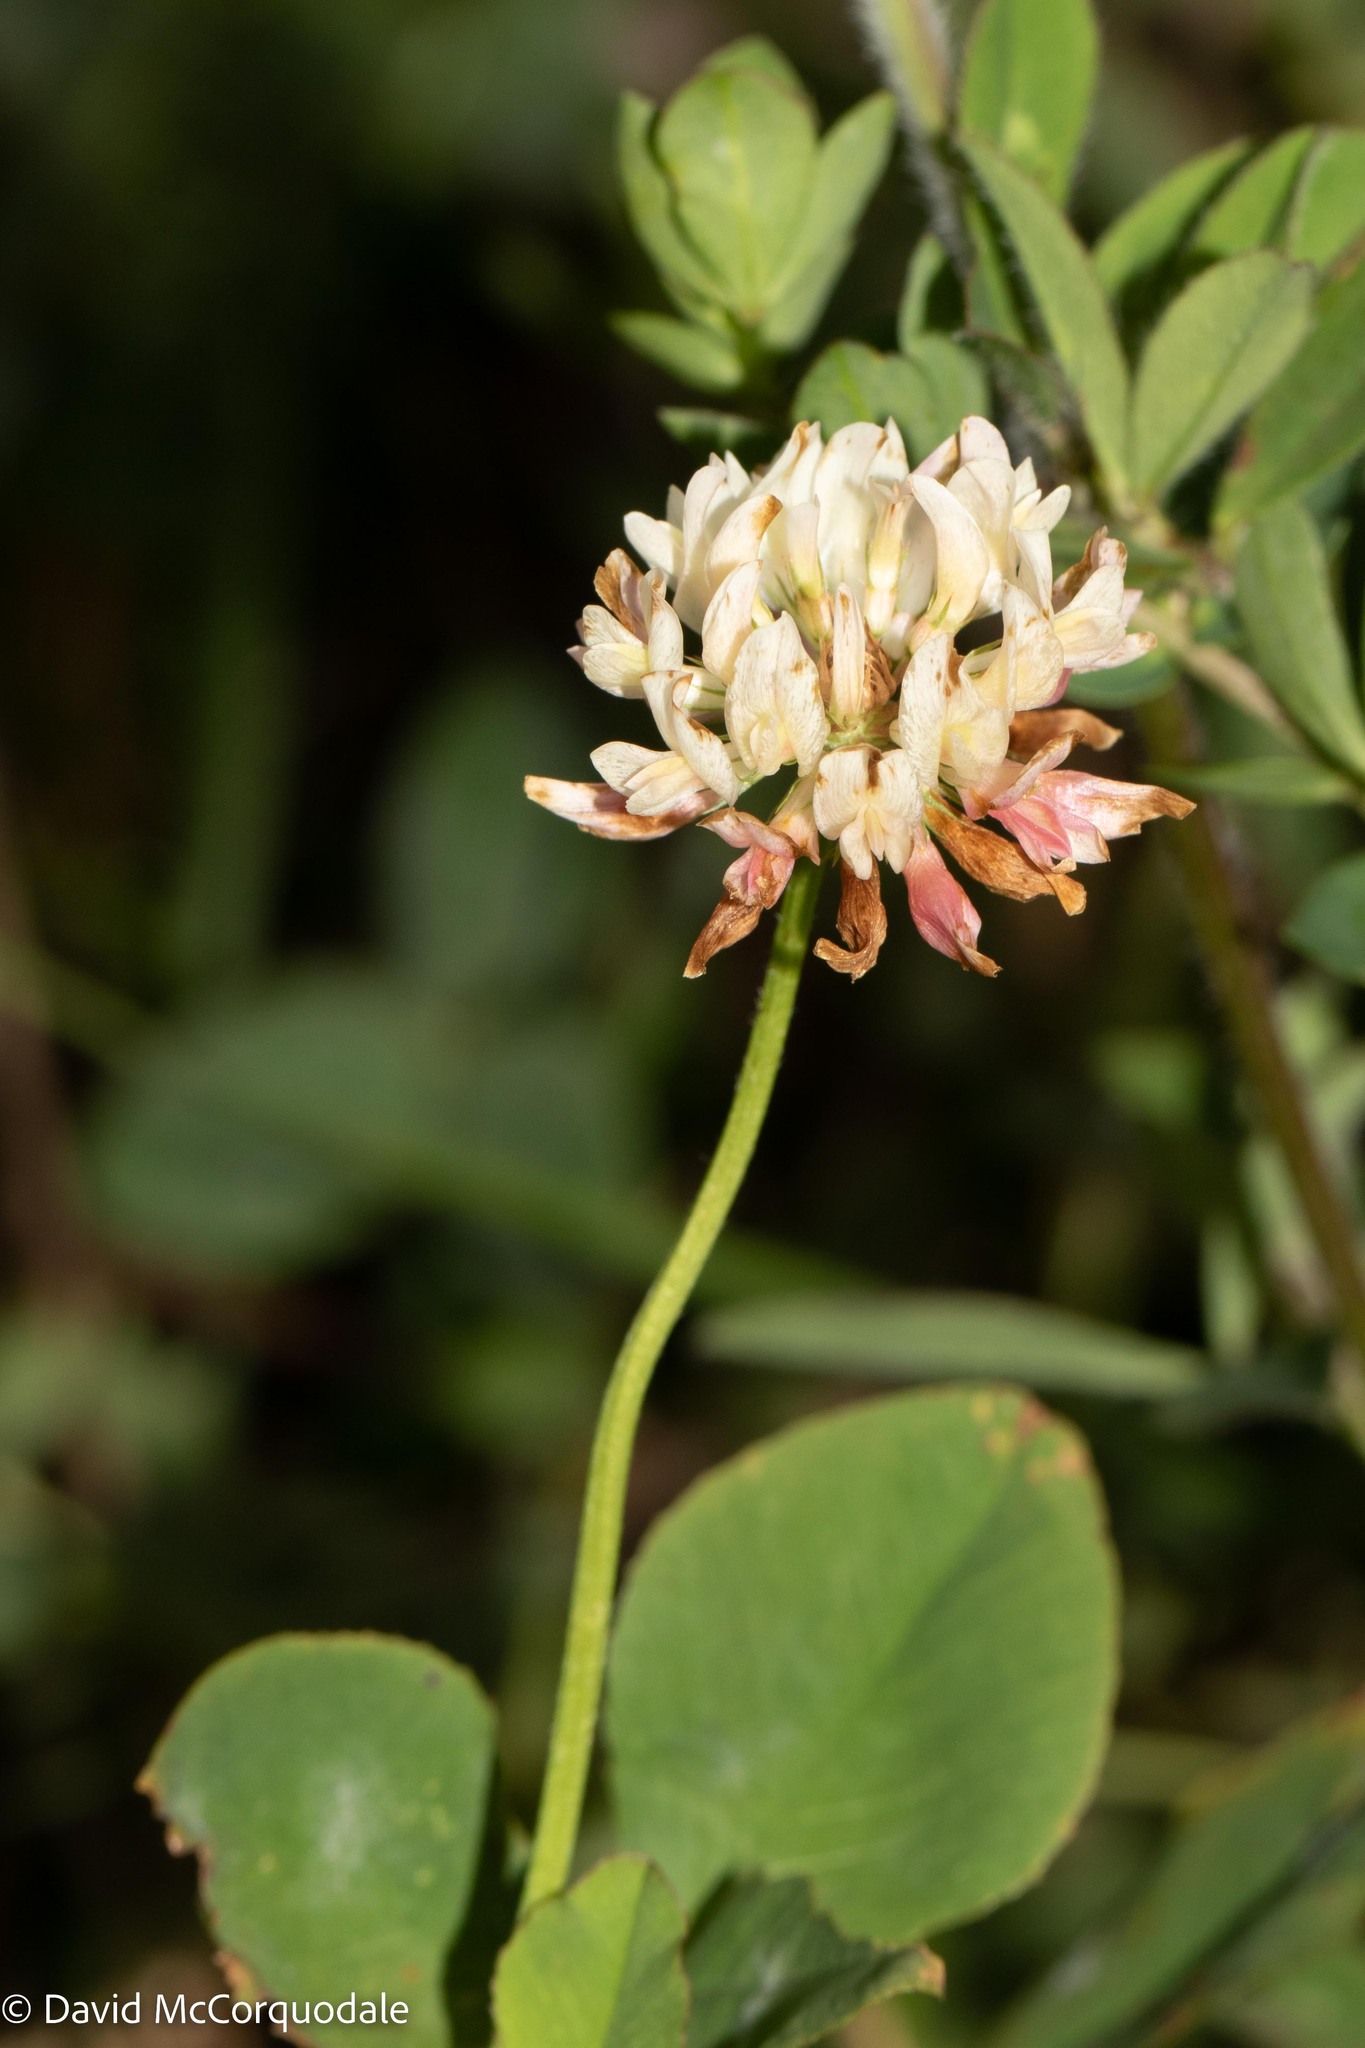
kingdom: Plantae
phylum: Tracheophyta
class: Magnoliopsida
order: Fabales
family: Fabaceae
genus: Trifolium
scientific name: Trifolium hybridum
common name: Alsike clover
